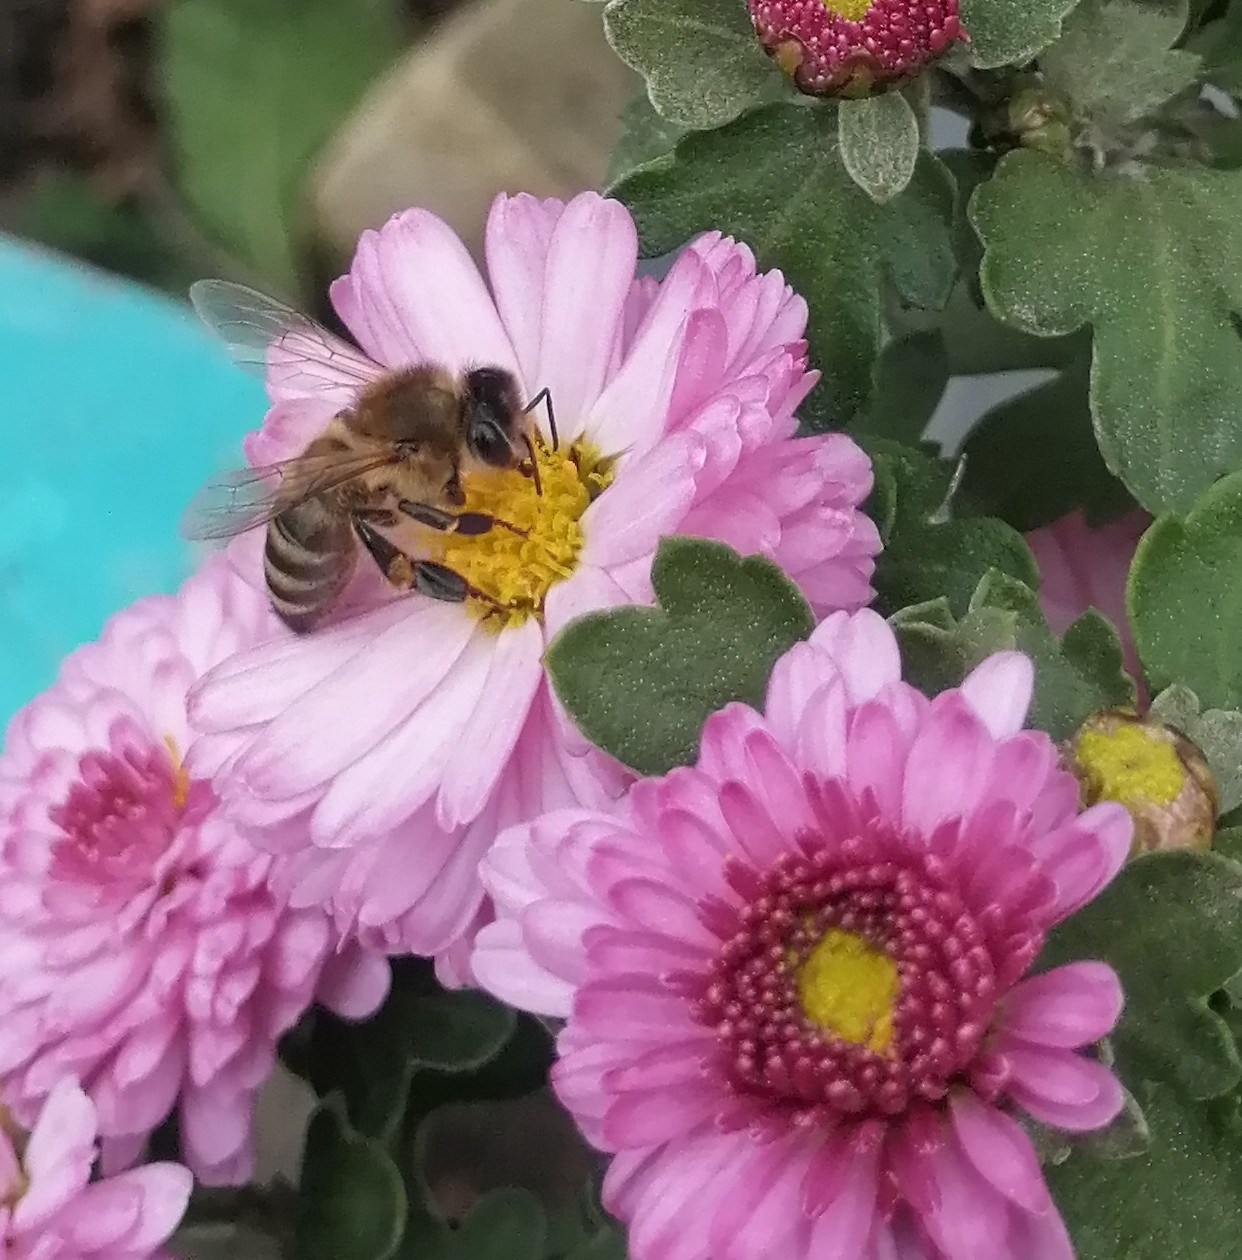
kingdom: Animalia
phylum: Arthropoda
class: Insecta
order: Hymenoptera
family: Apidae
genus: Apis
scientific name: Apis mellifera
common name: Honey bee
